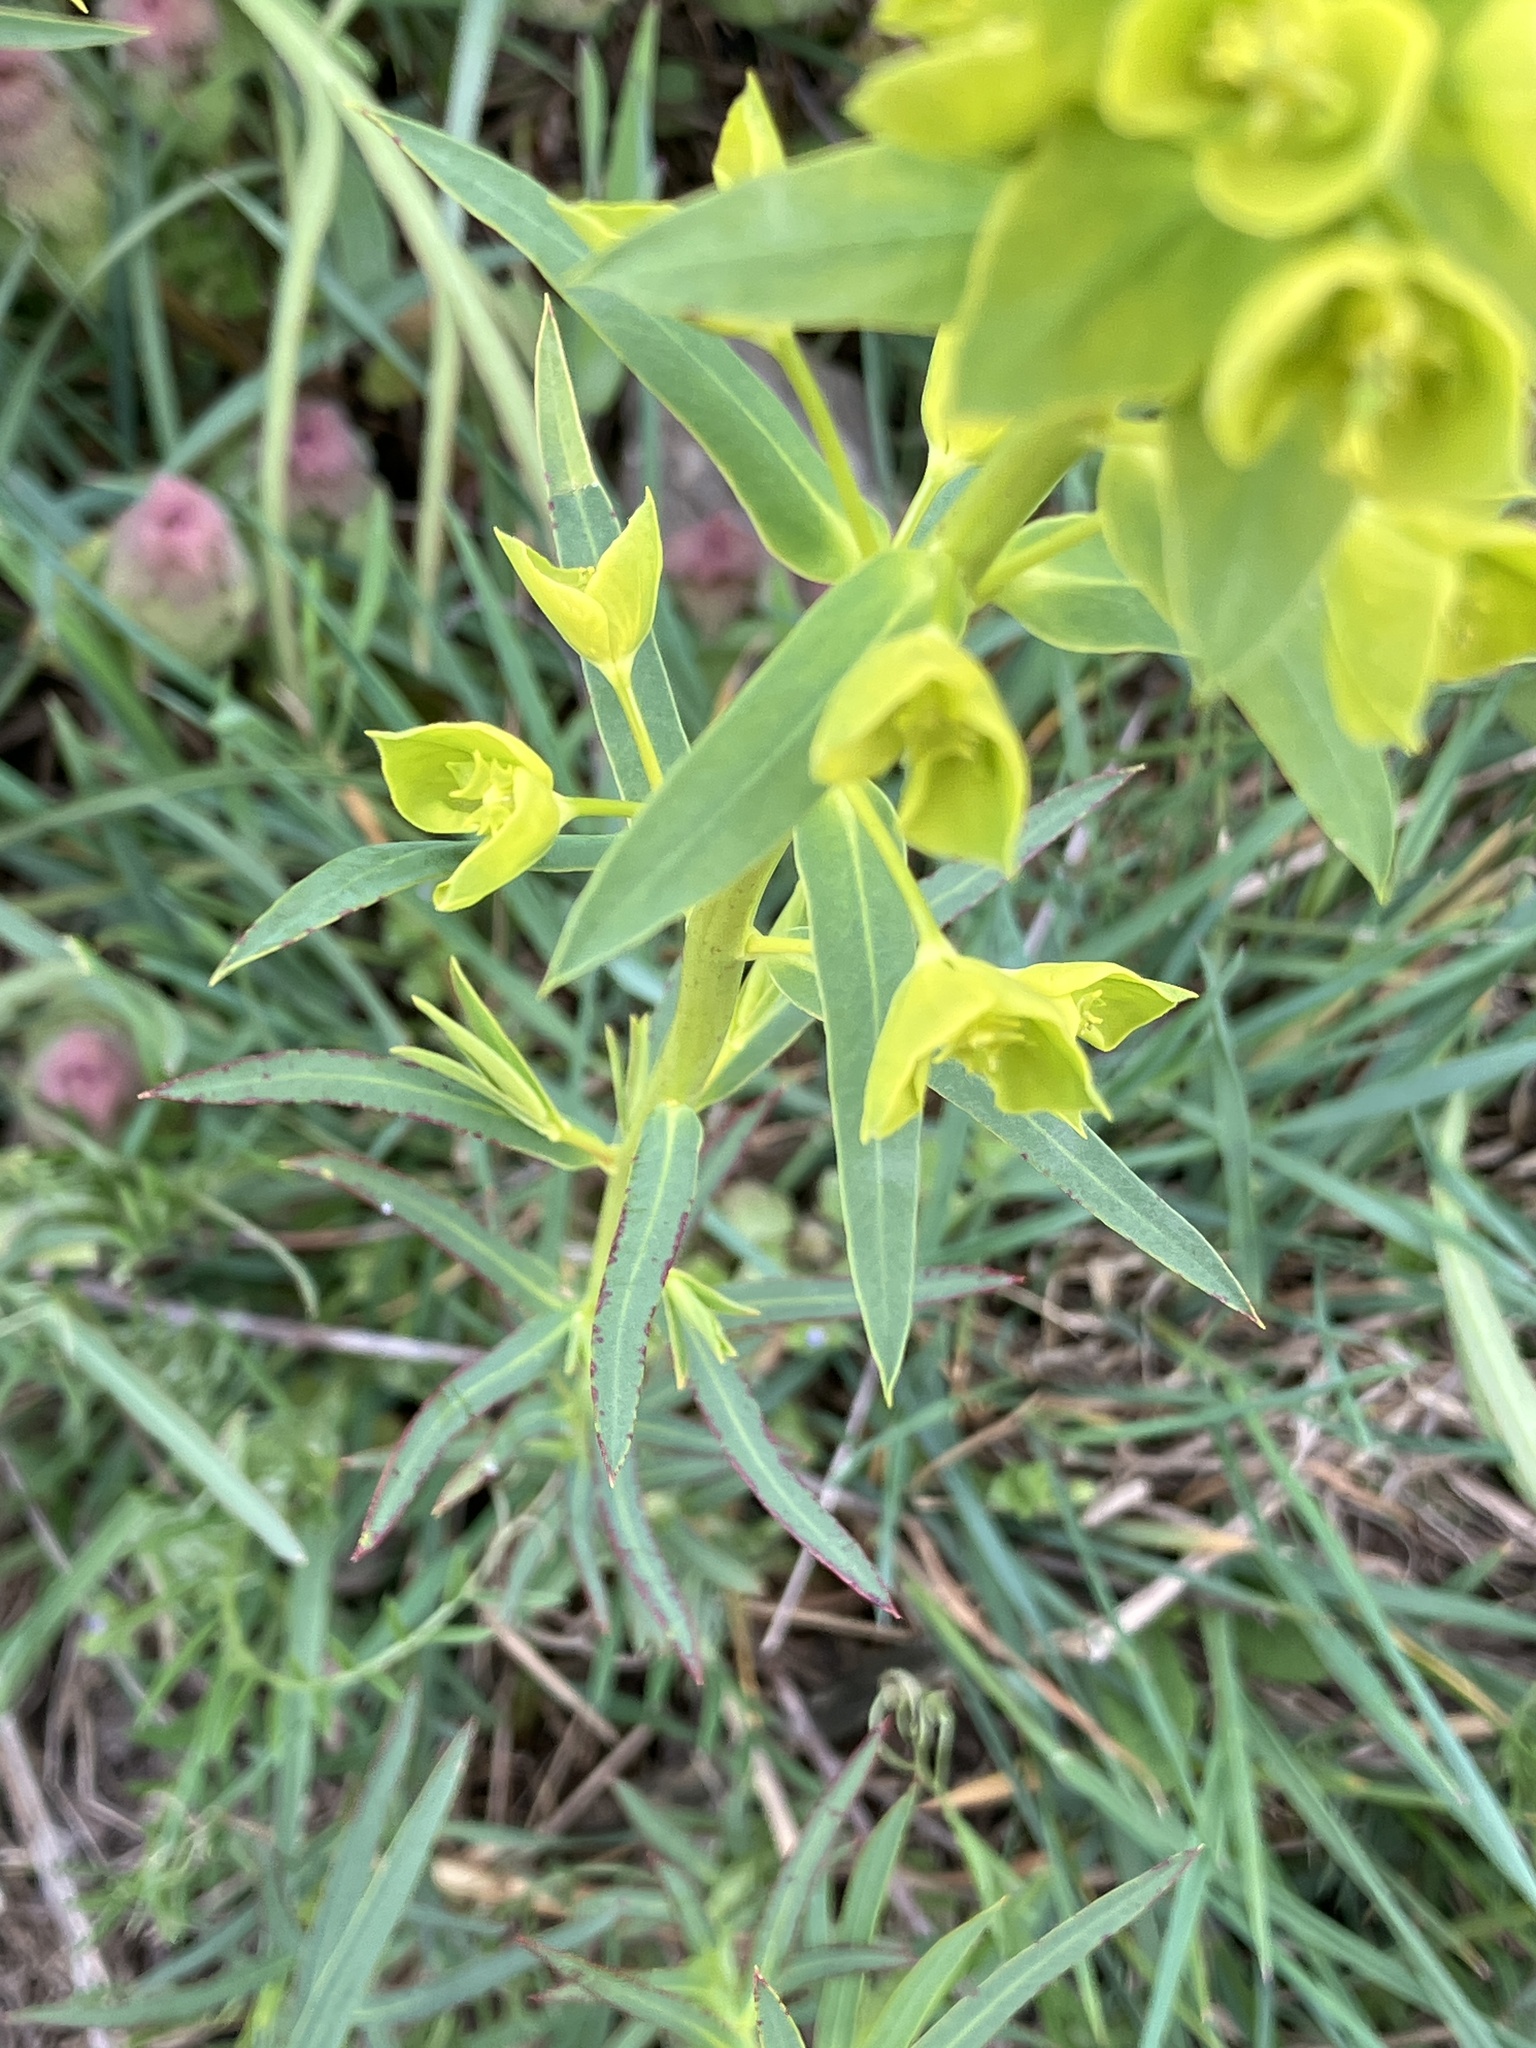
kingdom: Plantae
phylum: Tracheophyta
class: Magnoliopsida
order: Malpighiales
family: Euphorbiaceae
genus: Euphorbia
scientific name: Euphorbia virgata
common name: Leafy spurge
